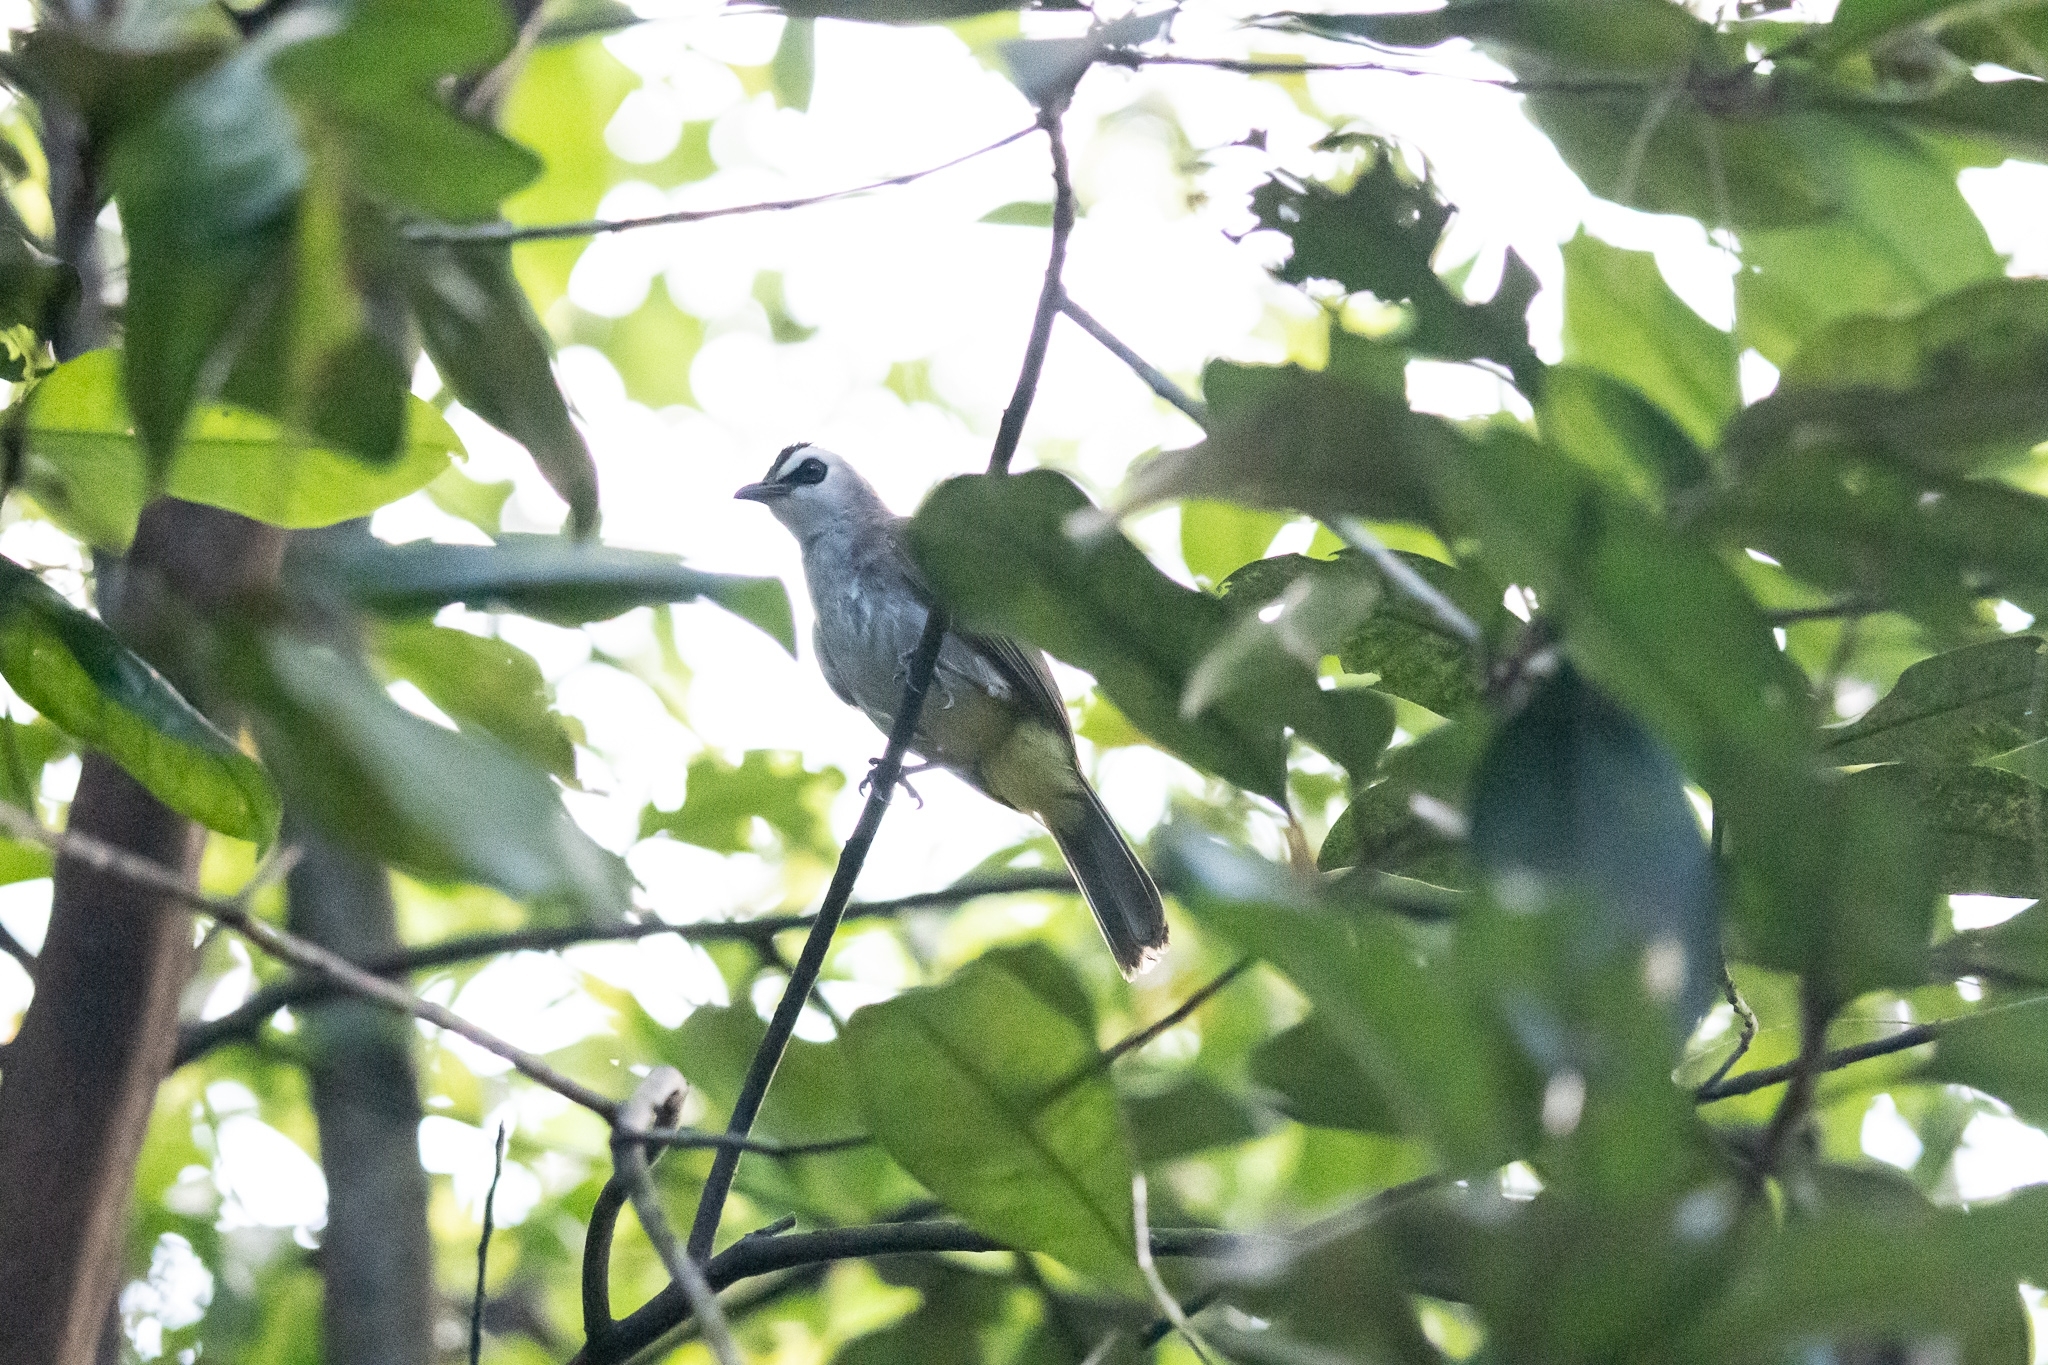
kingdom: Animalia
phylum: Chordata
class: Aves
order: Passeriformes
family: Pycnonotidae
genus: Pycnonotus
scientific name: Pycnonotus goiavier
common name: Yellow-vented bulbul
